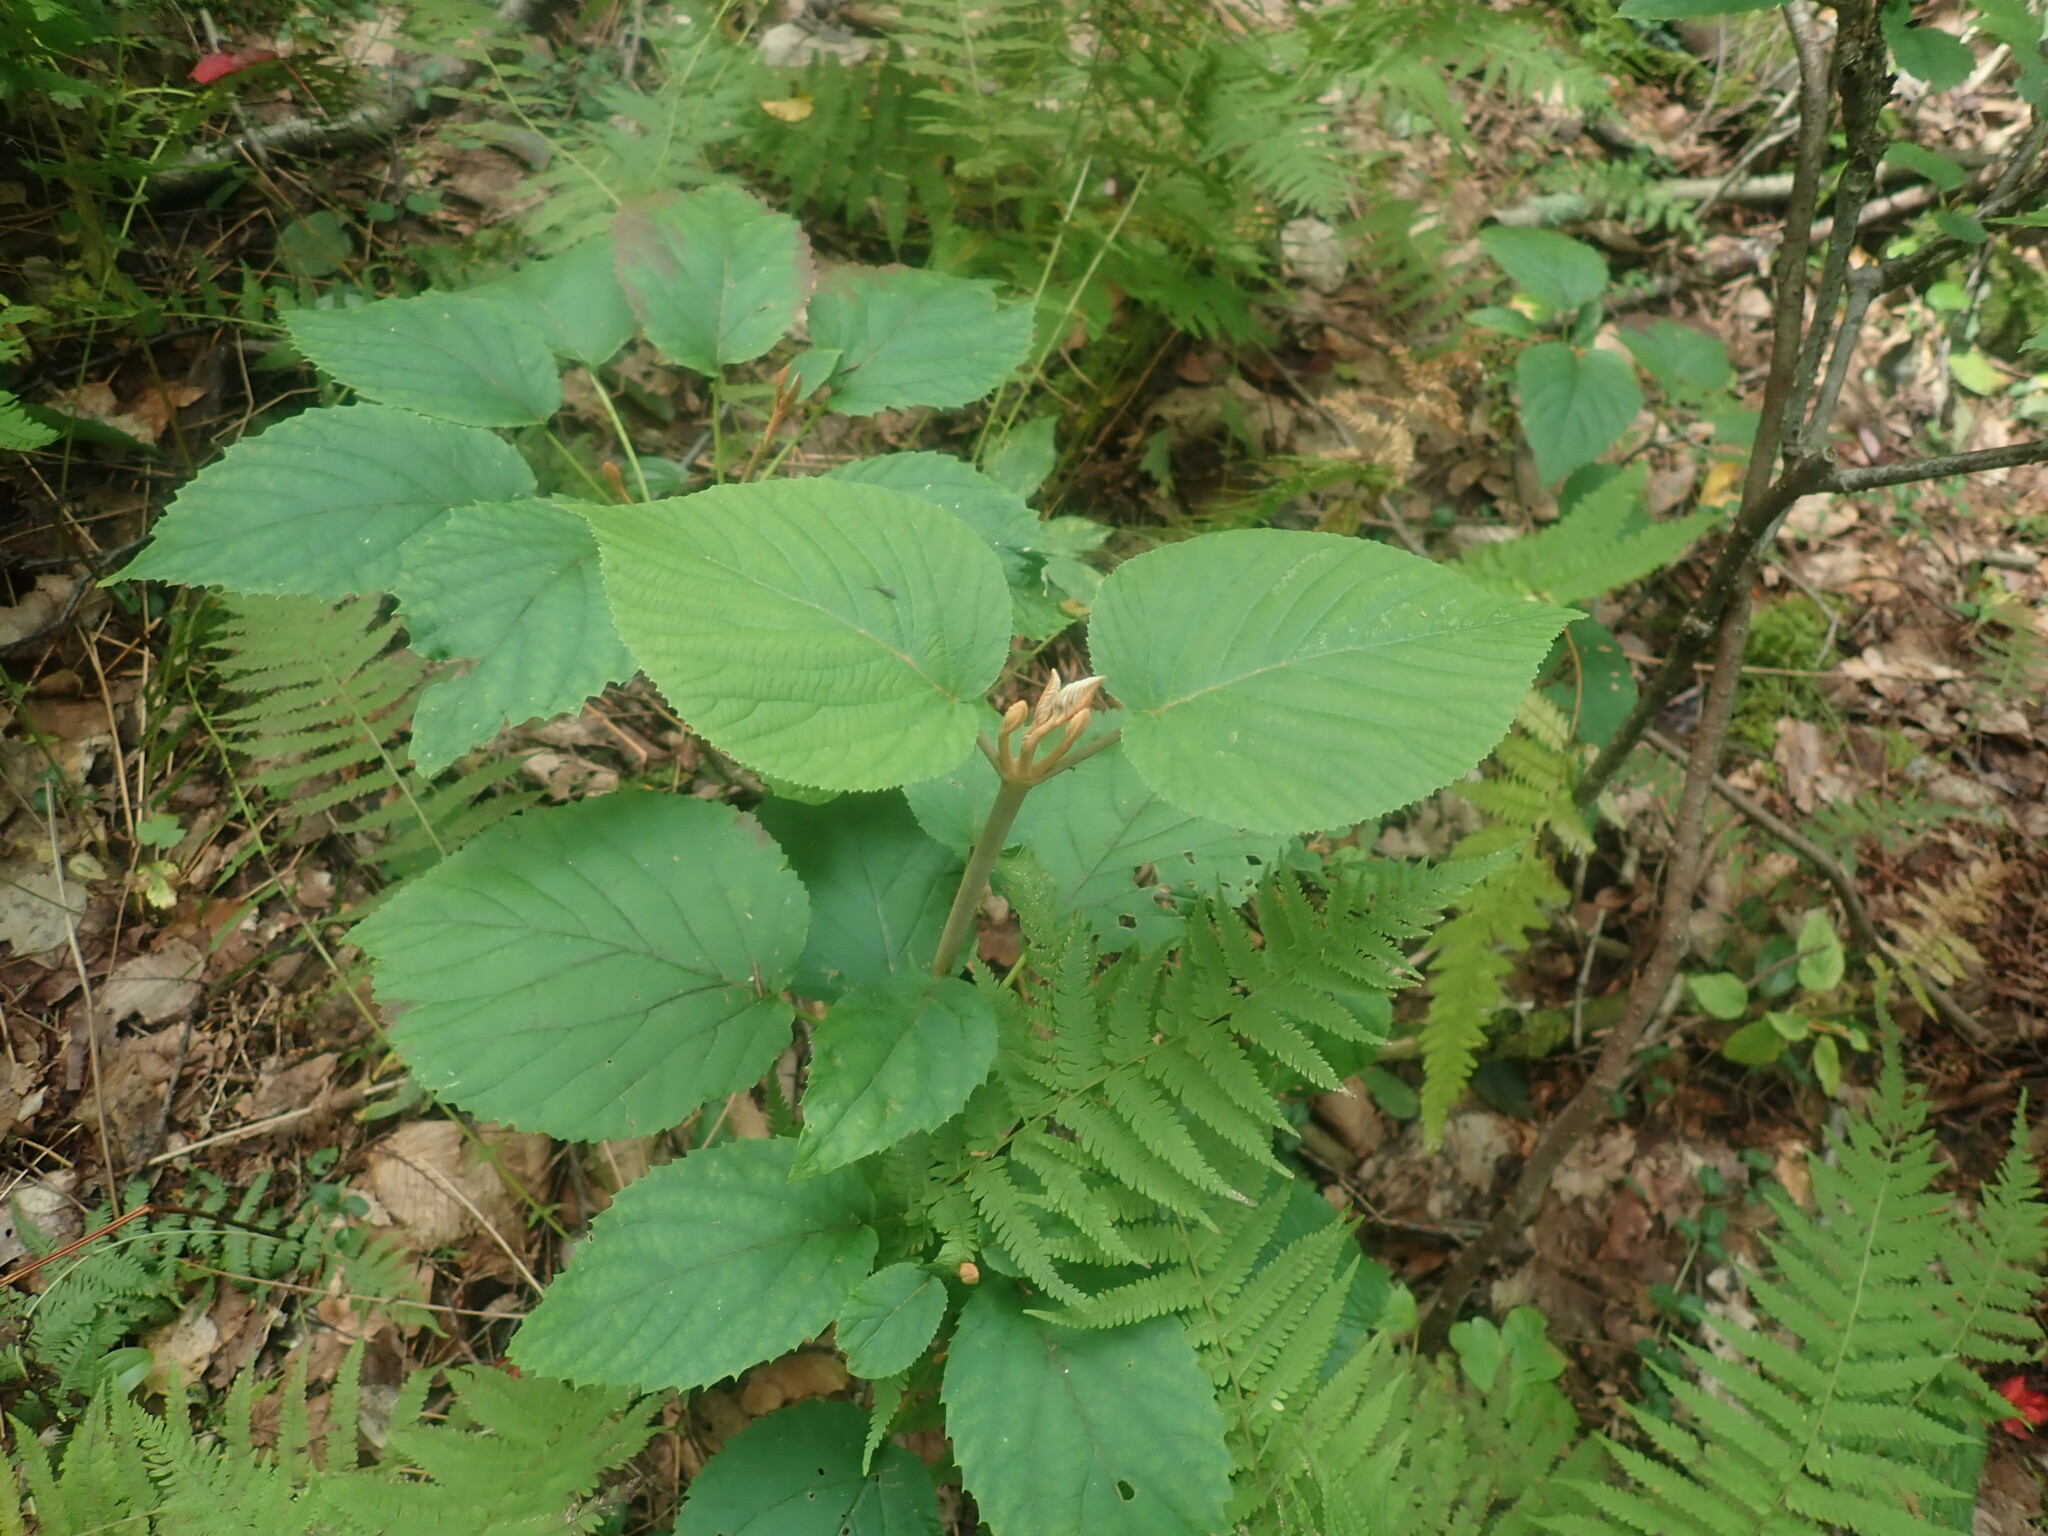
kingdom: Plantae
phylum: Tracheophyta
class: Magnoliopsida
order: Dipsacales
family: Viburnaceae
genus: Viburnum
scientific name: Viburnum lantanoides
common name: Hobblebush
